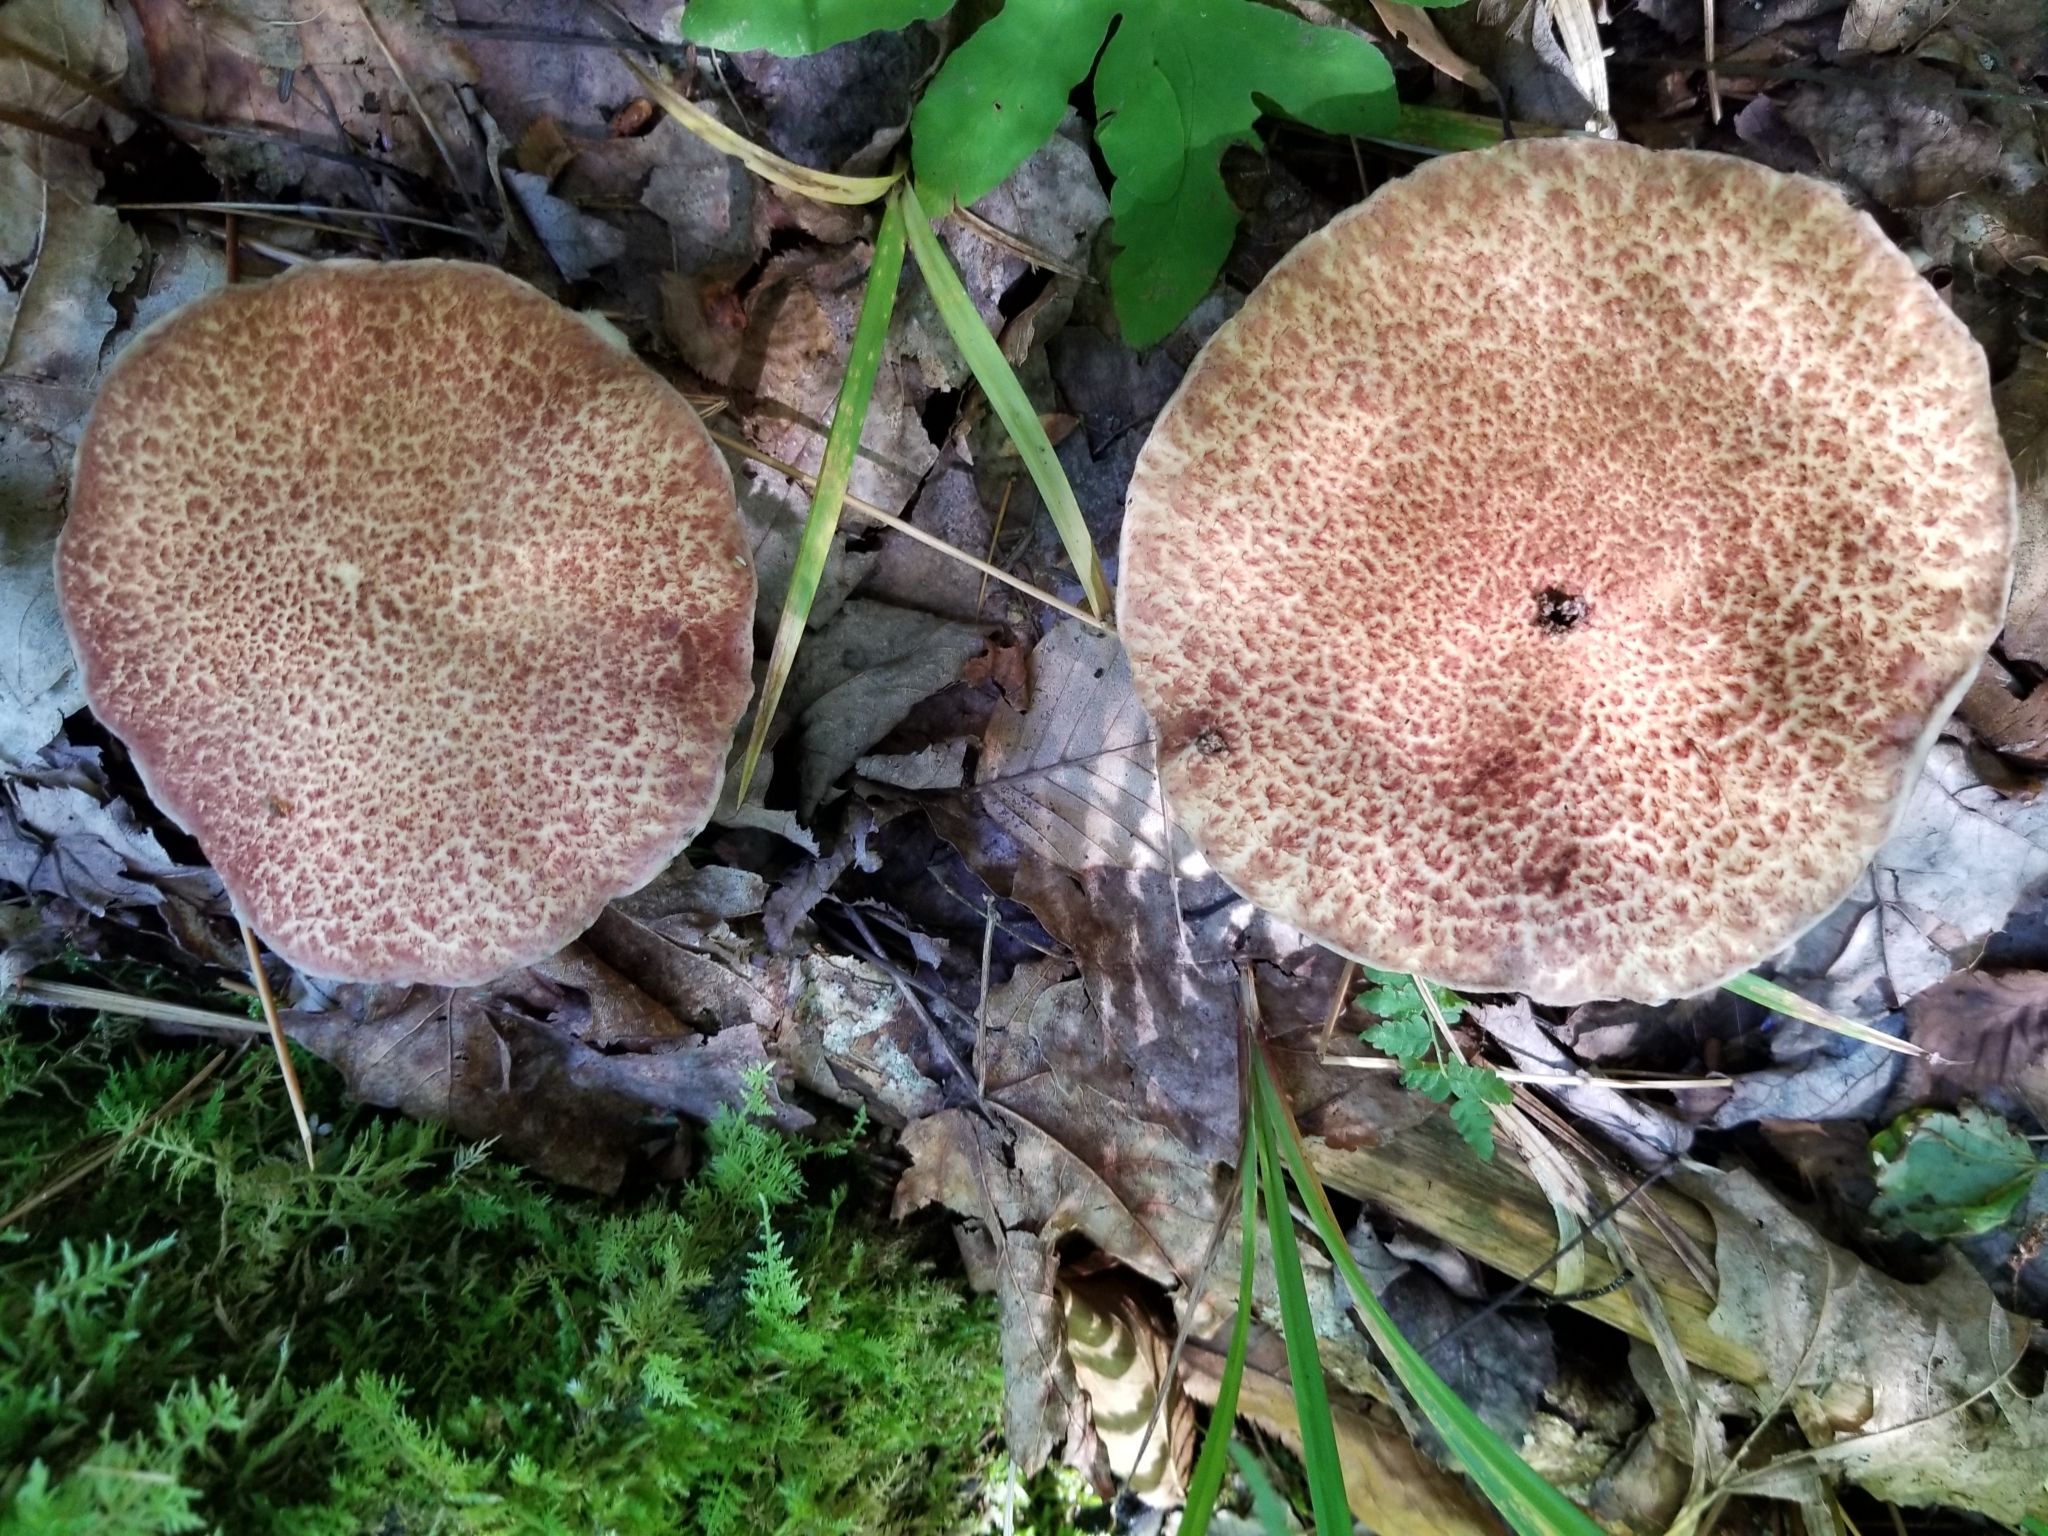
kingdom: Fungi
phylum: Basidiomycota
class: Agaricomycetes
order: Boletales
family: Suillaceae
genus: Suillus
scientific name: Suillus spraguei
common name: Painted suillus
